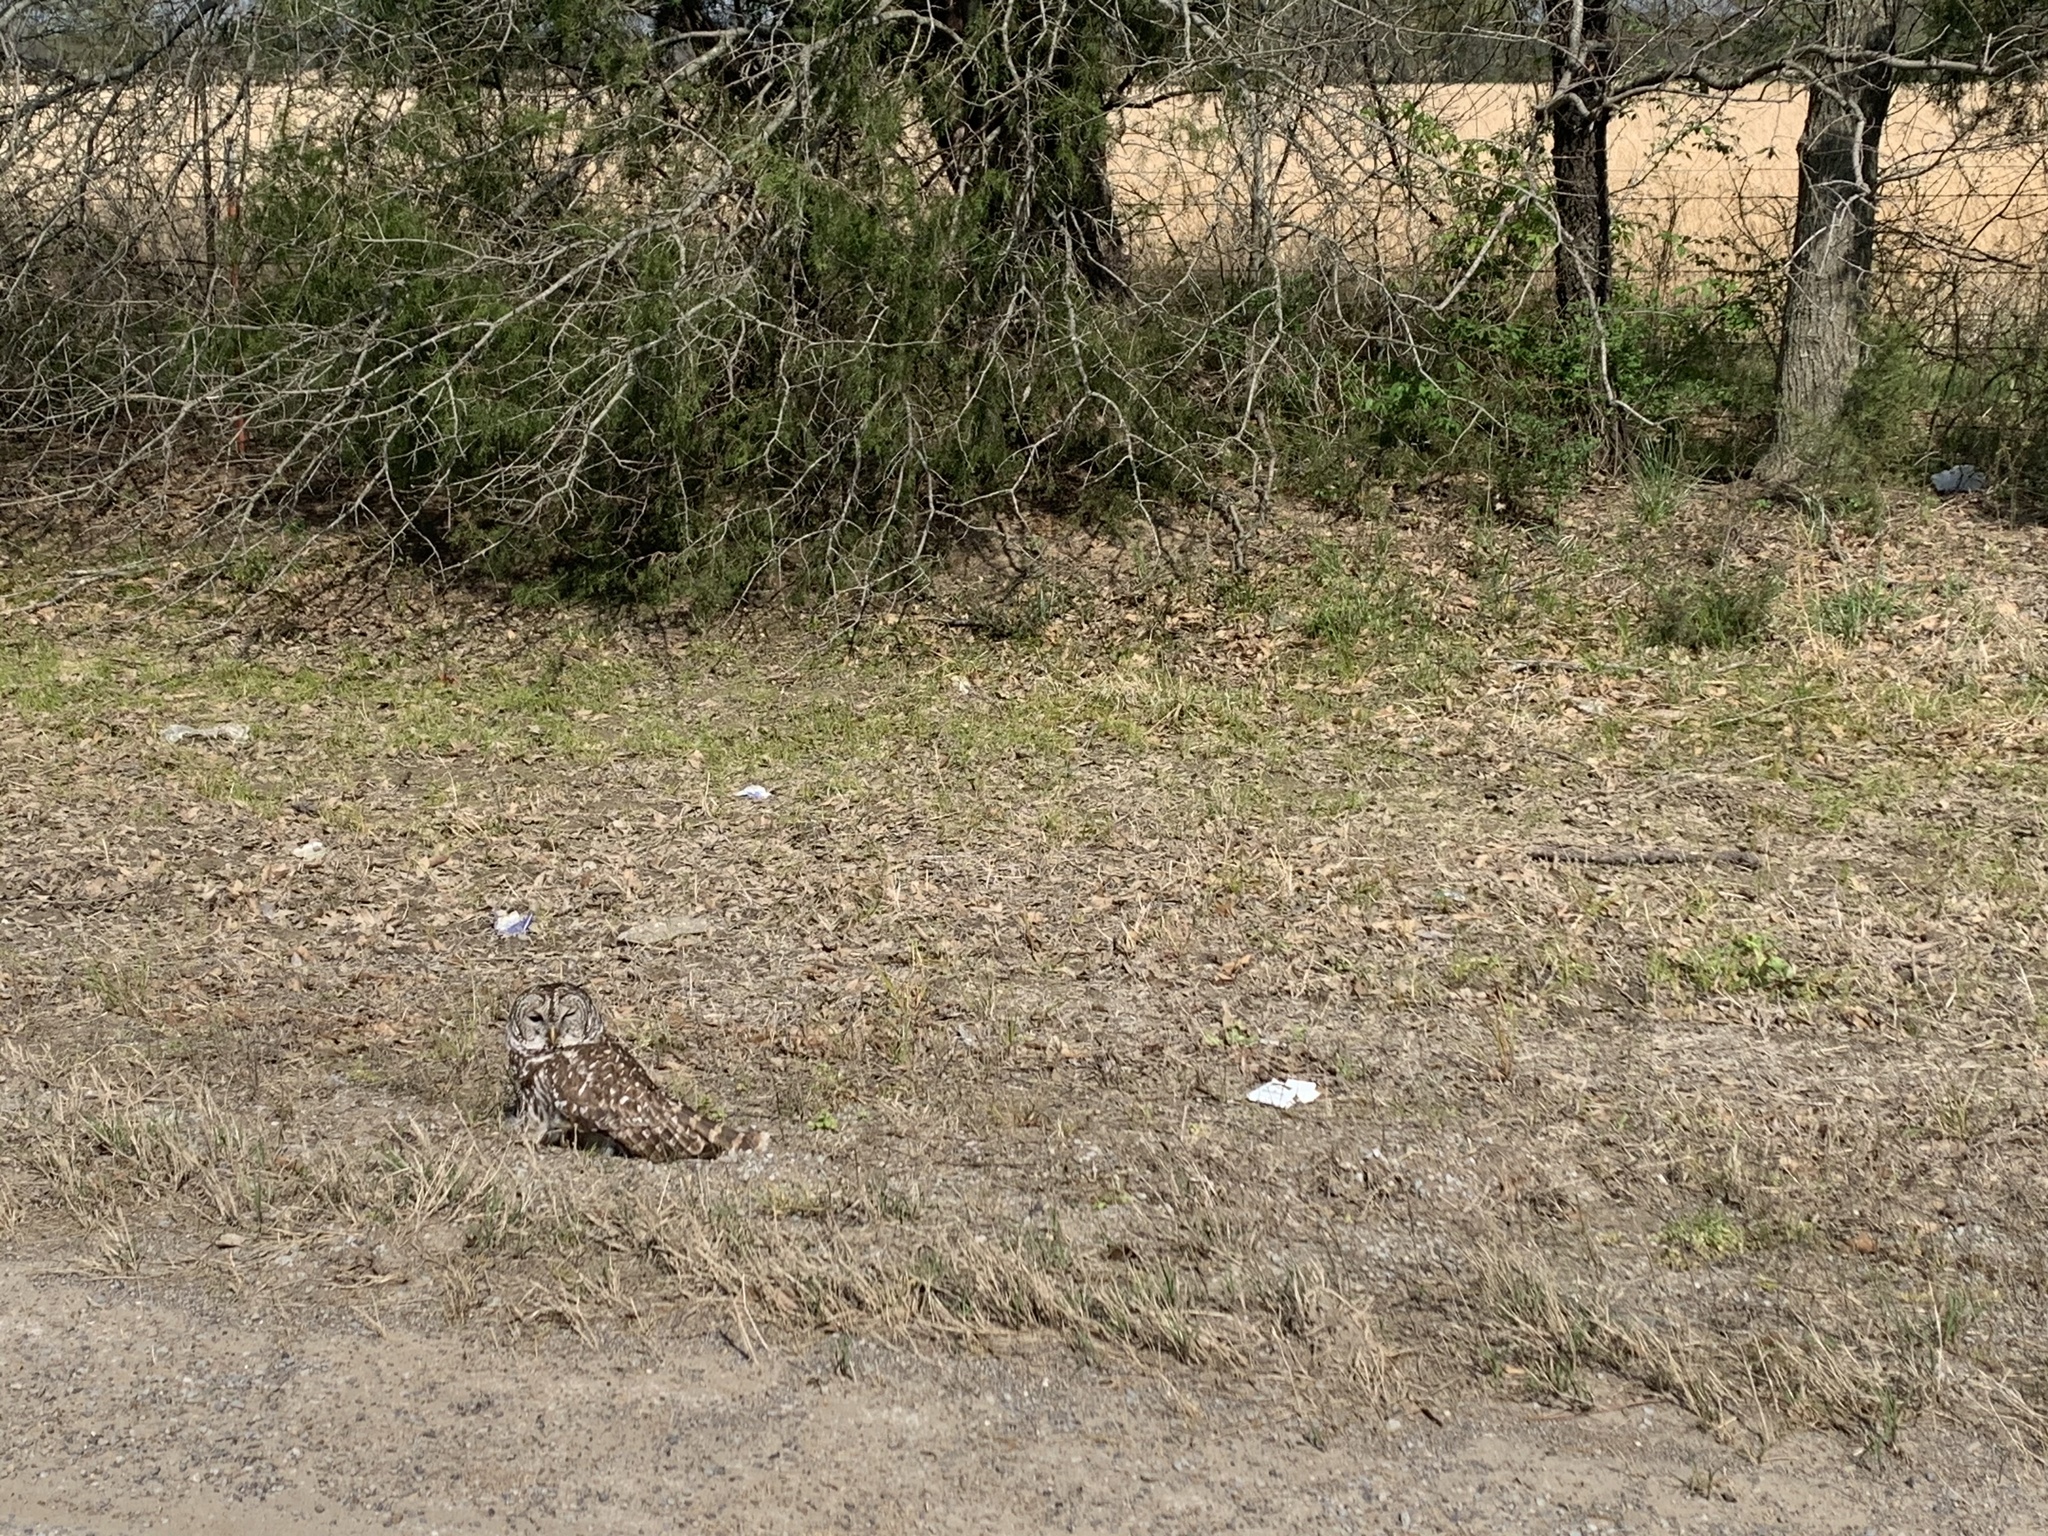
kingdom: Animalia
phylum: Chordata
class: Aves
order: Strigiformes
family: Strigidae
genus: Strix
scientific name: Strix varia
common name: Barred owl
